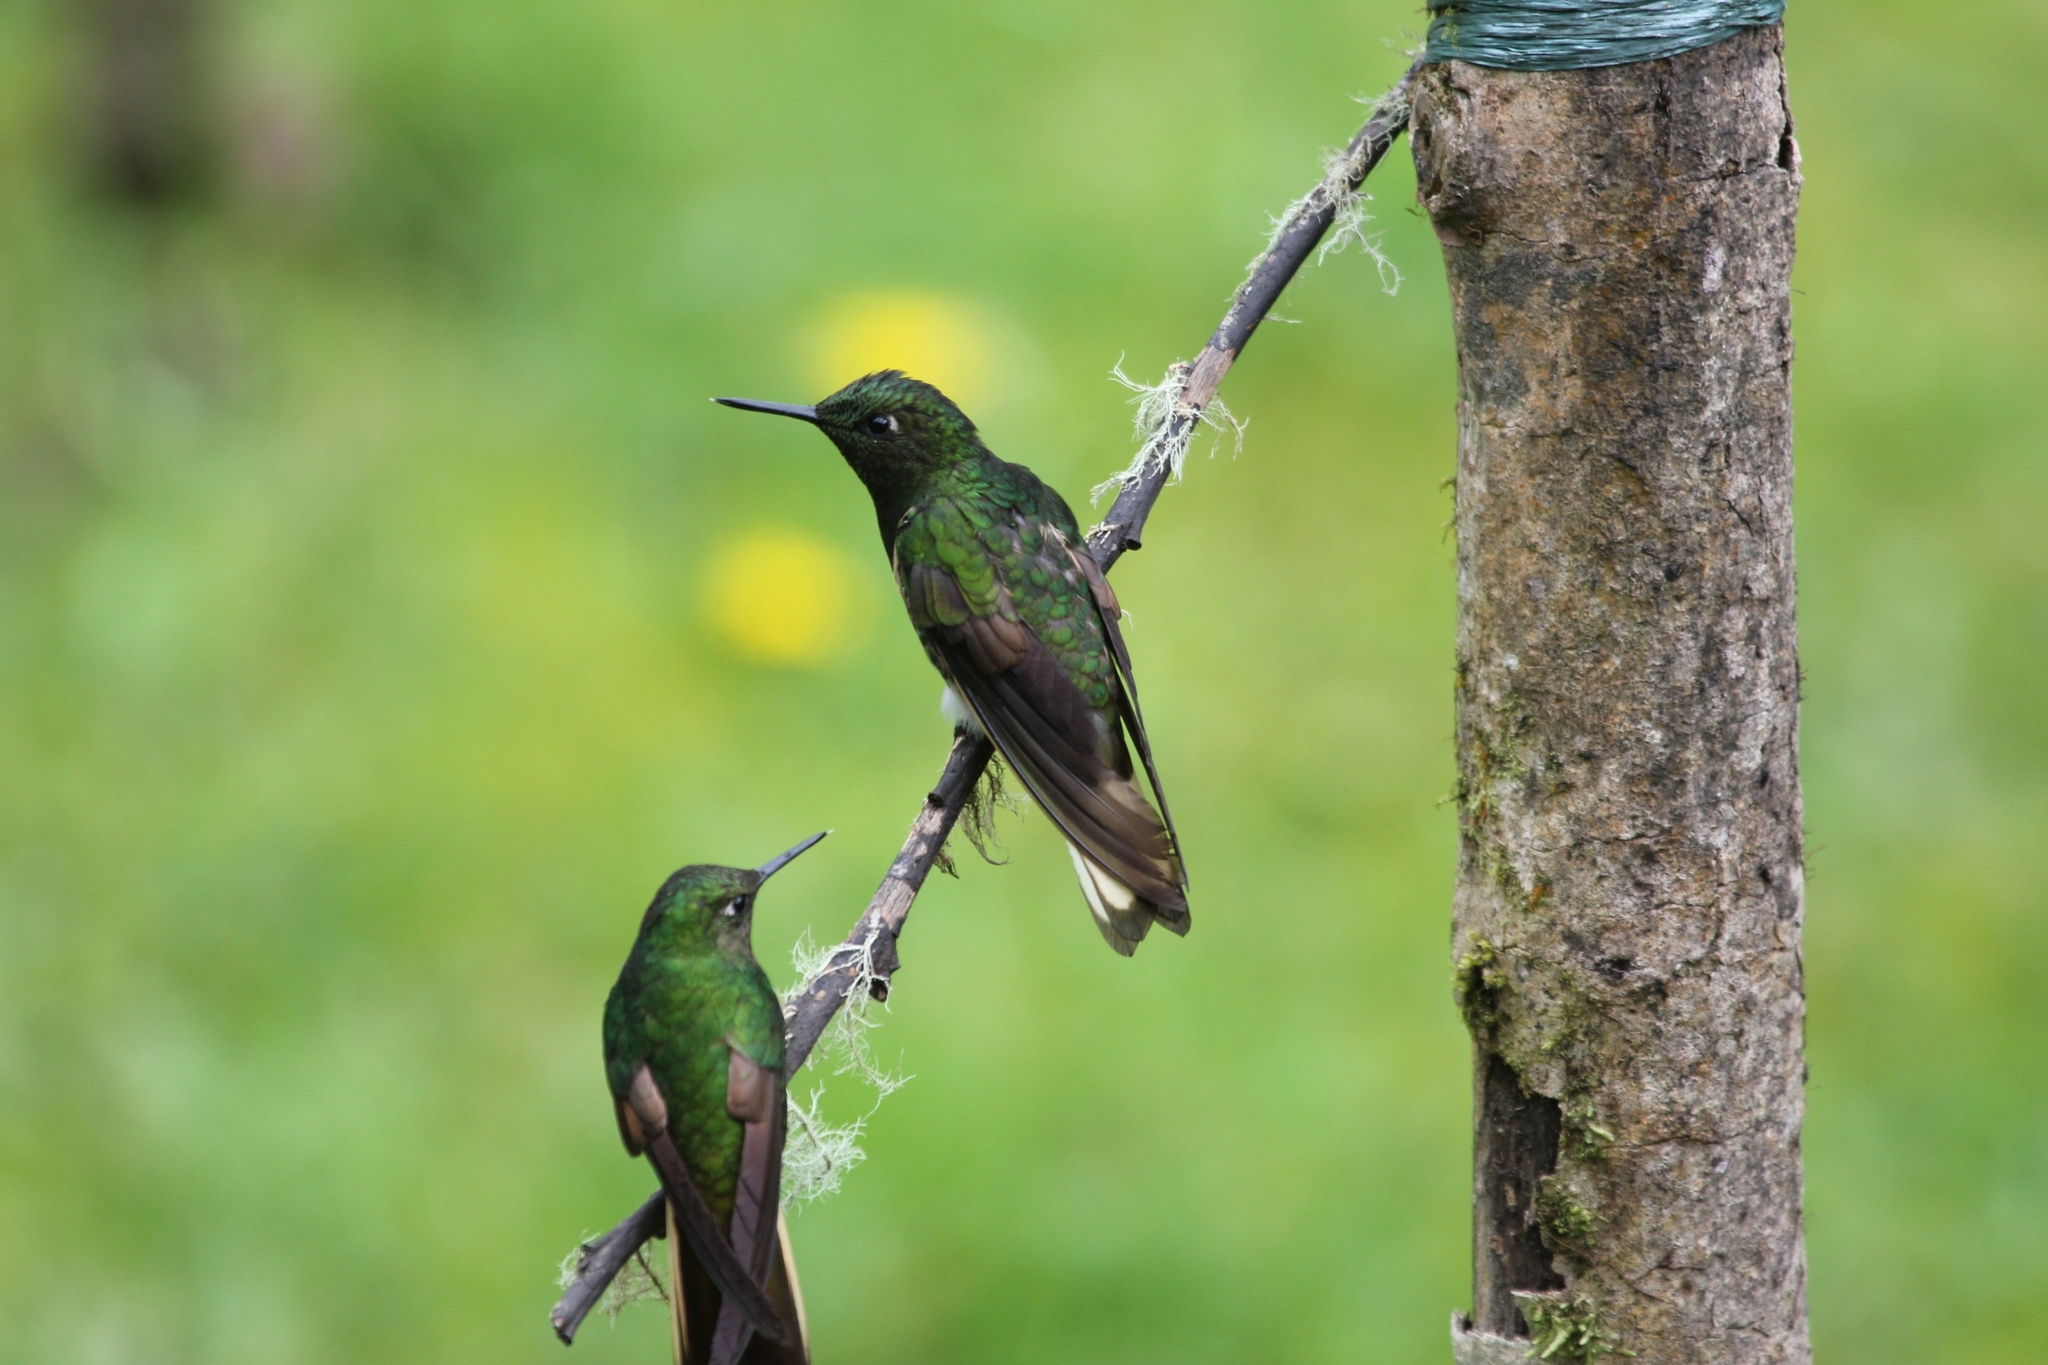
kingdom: Animalia
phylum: Chordata
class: Aves
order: Apodiformes
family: Trochilidae
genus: Boissonneaua
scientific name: Boissonneaua flavescens
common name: Buff-tailed coronet
